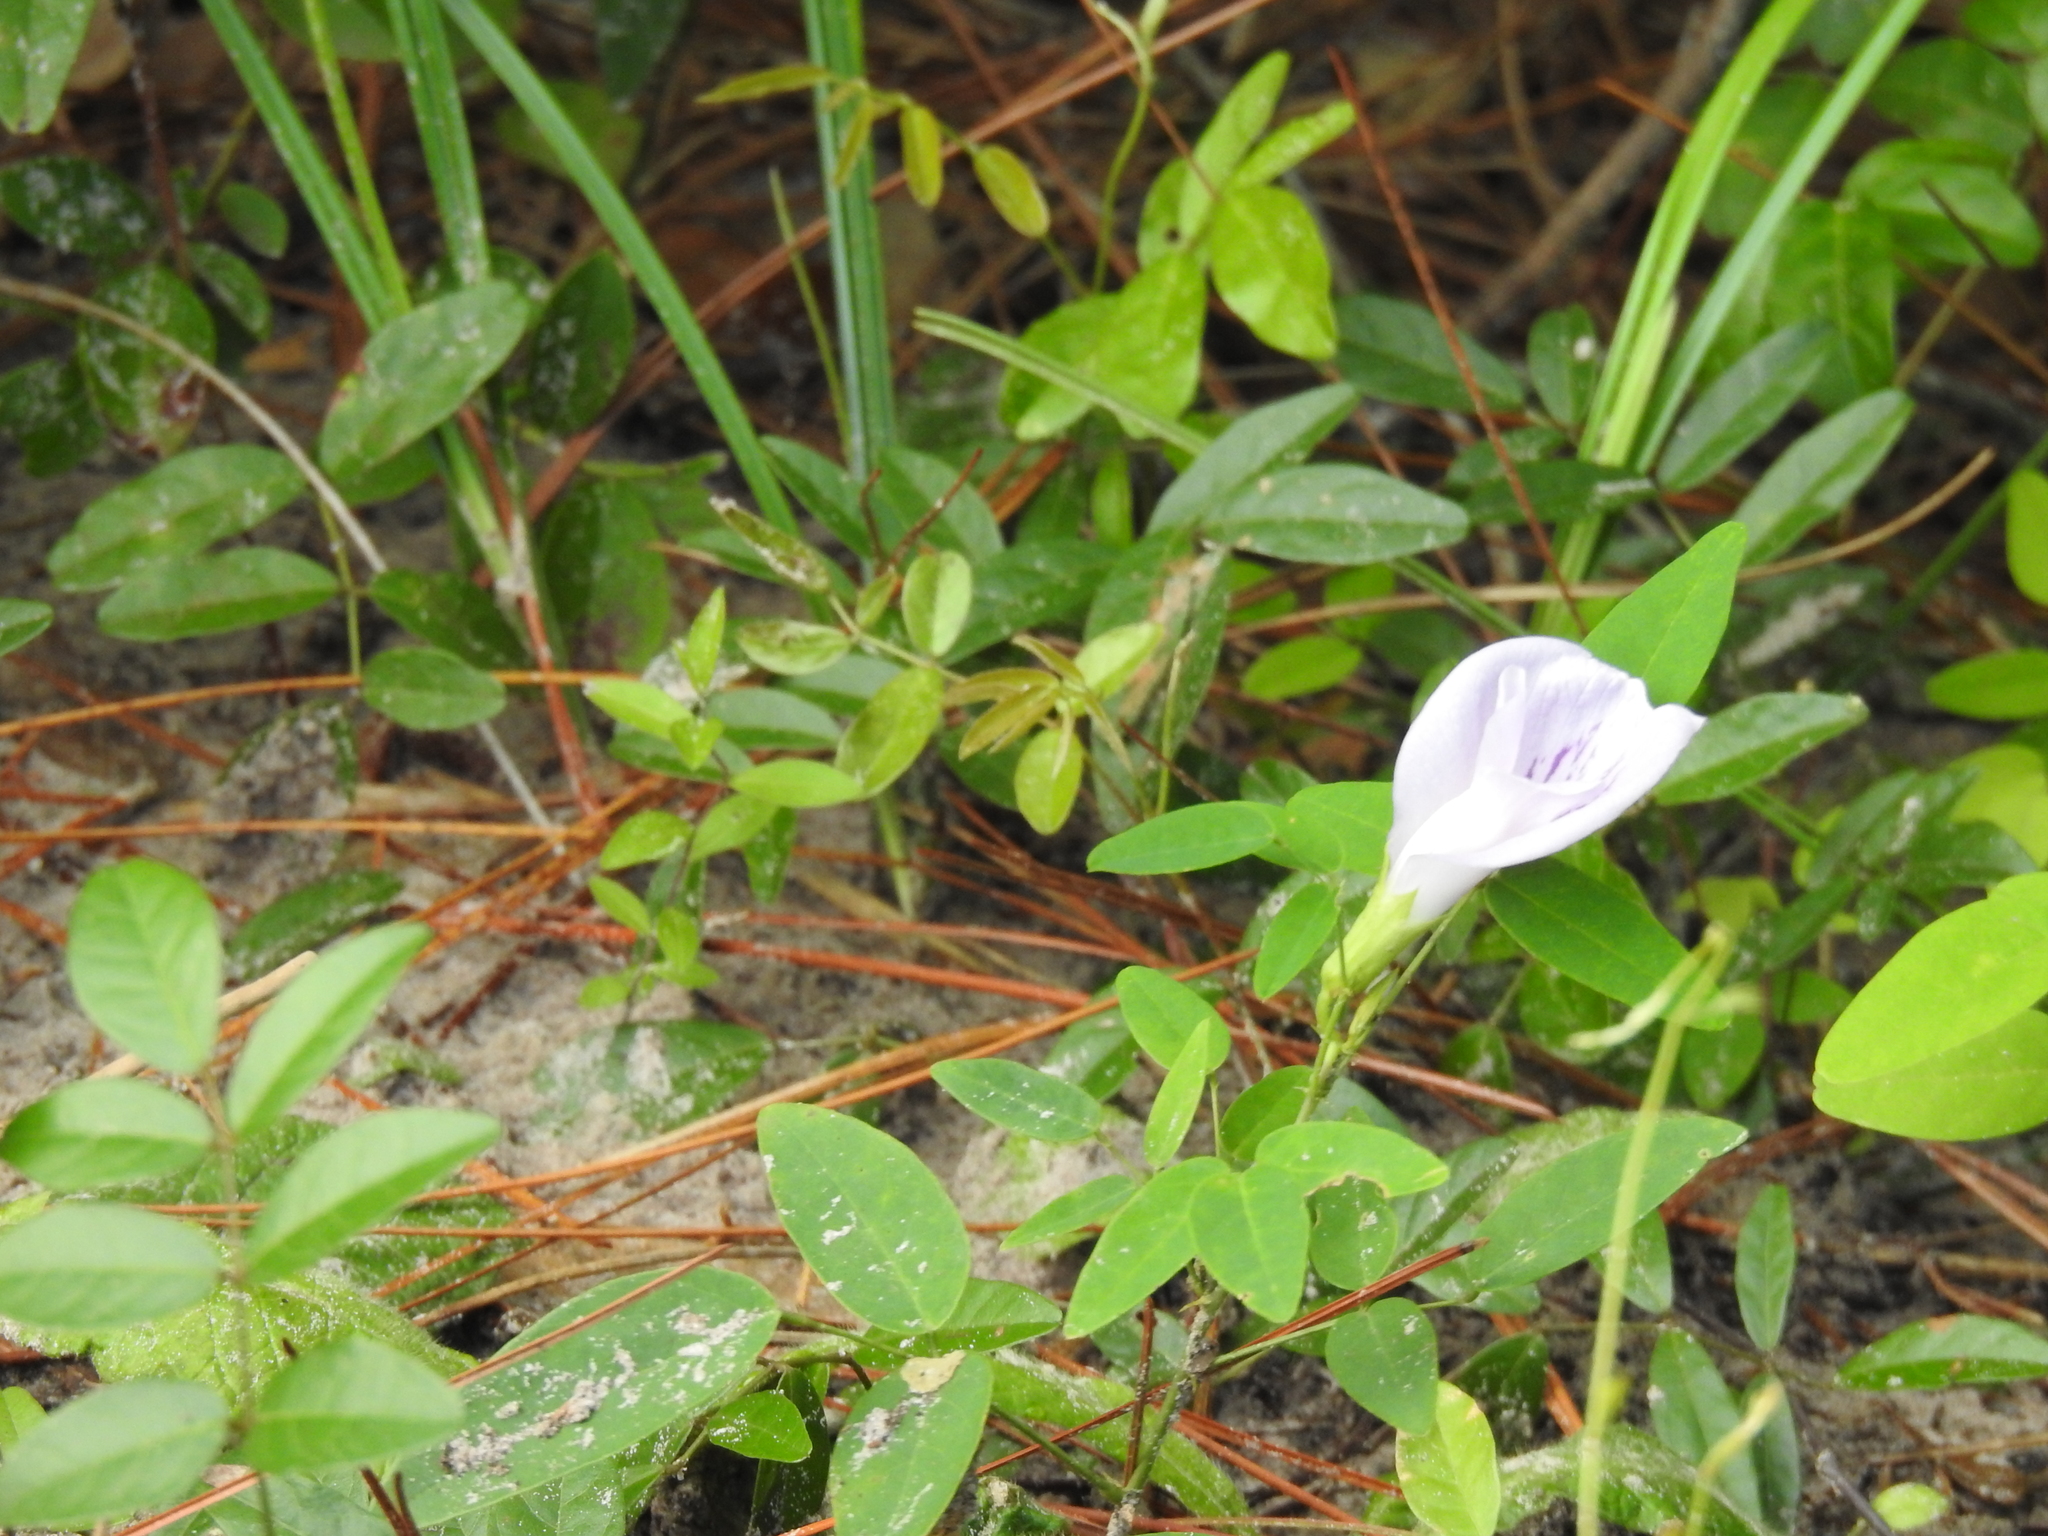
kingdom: Plantae
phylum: Tracheophyta
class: Magnoliopsida
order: Fabales
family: Fabaceae
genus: Clitoria
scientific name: Clitoria mariana
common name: Butterfly-pea
